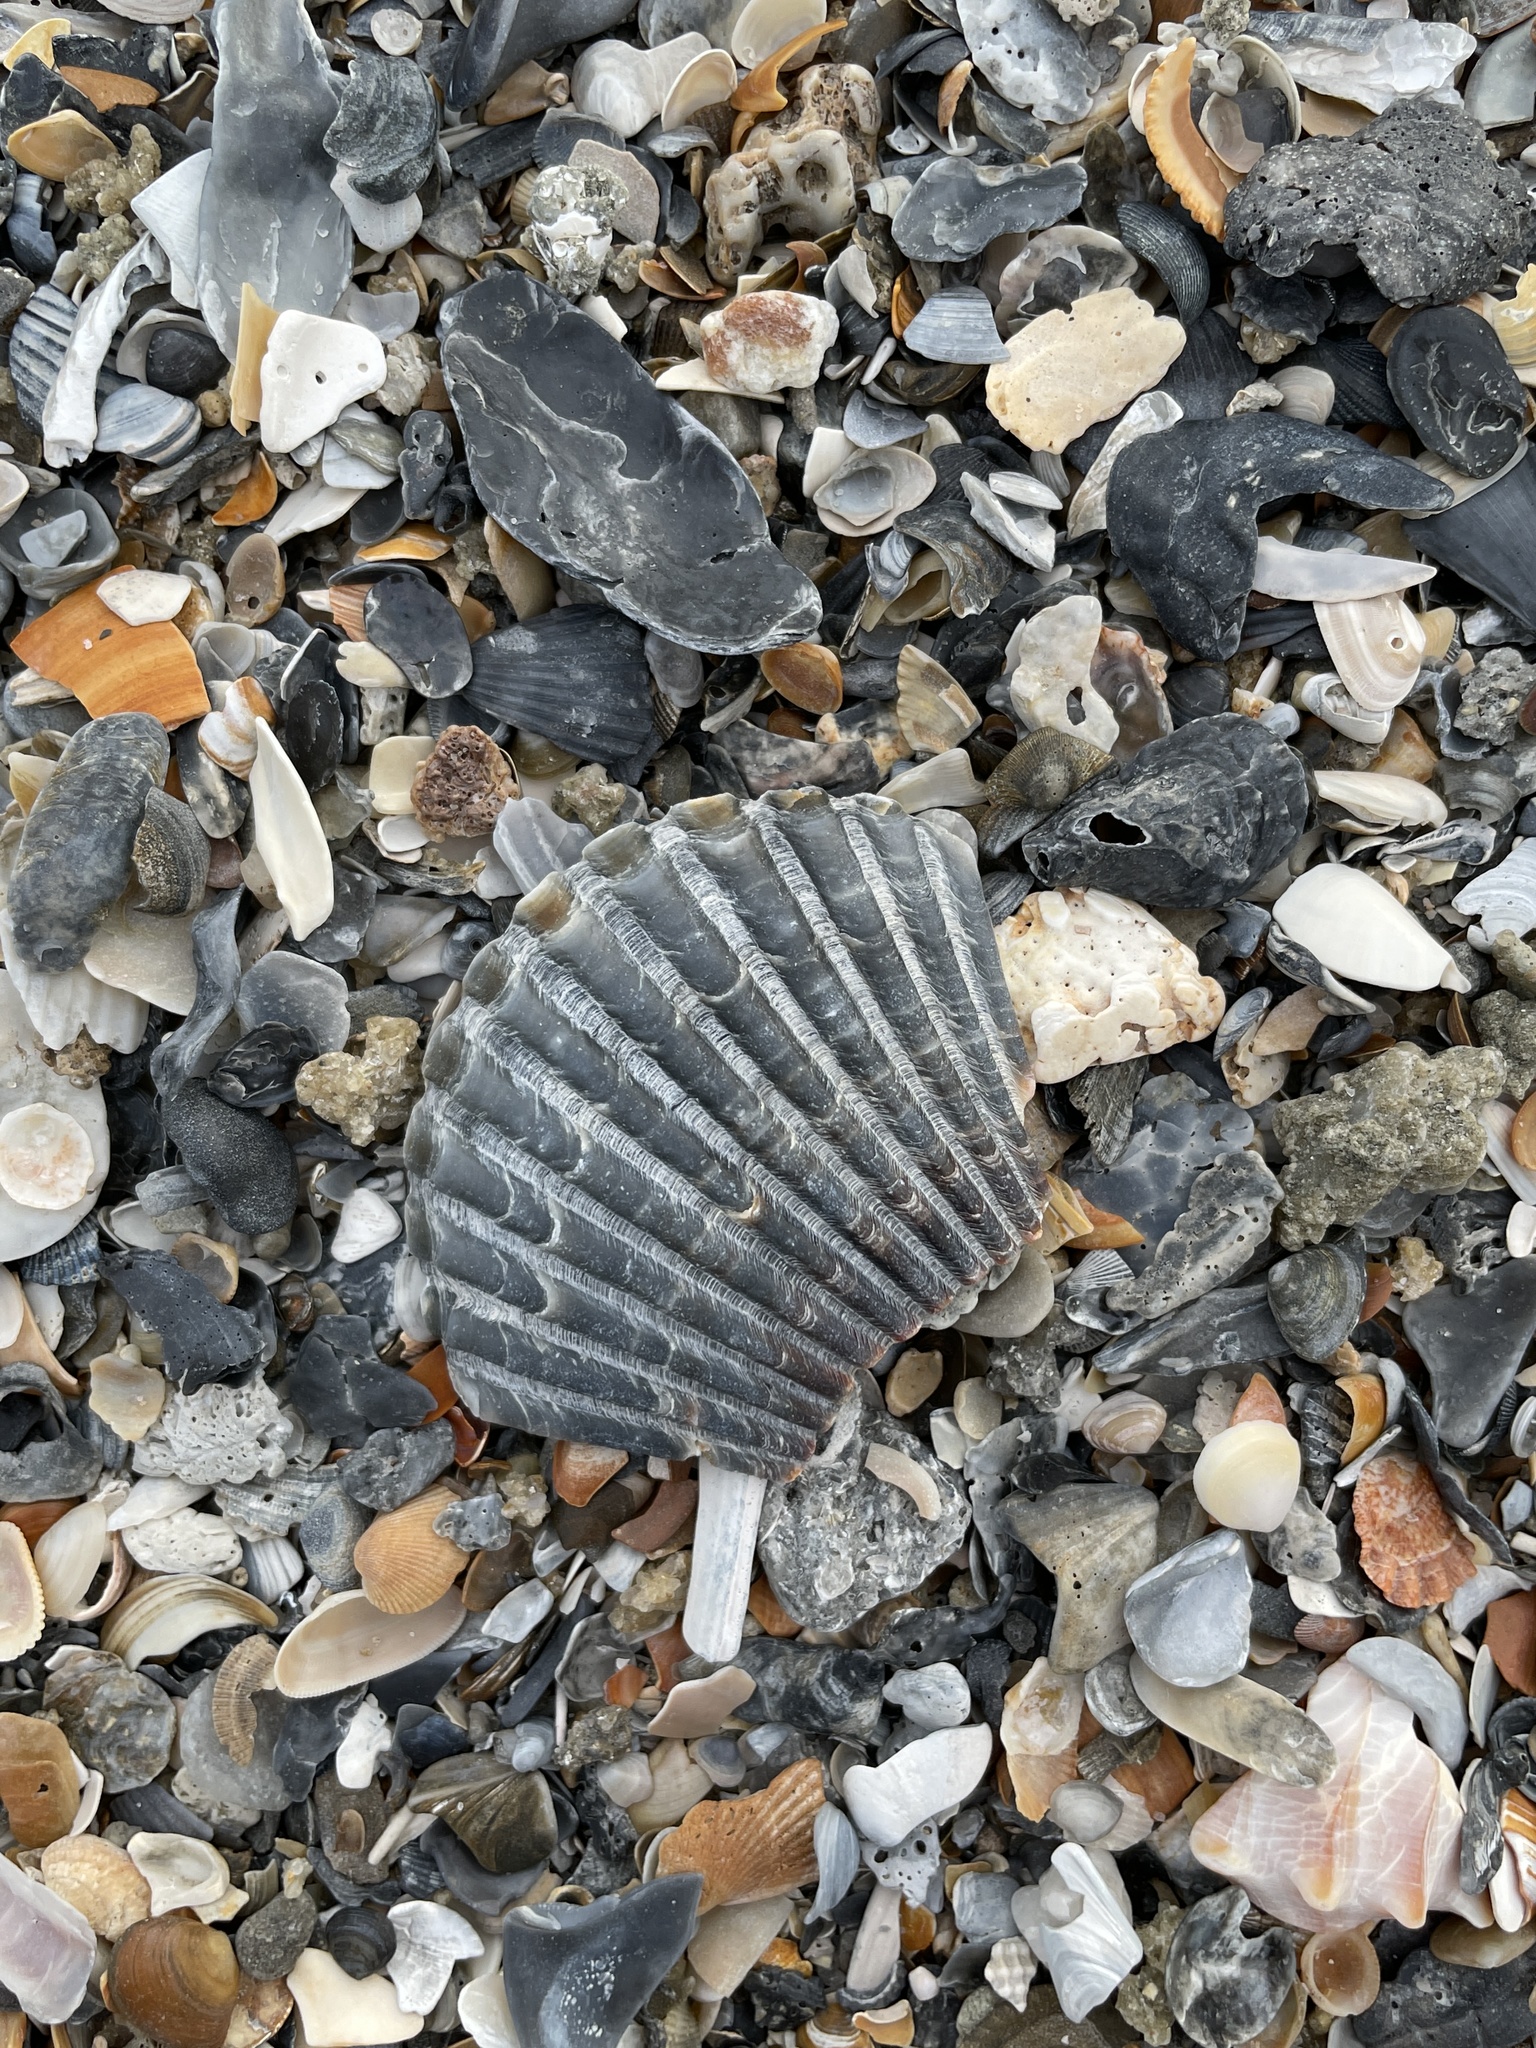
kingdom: Animalia
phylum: Mollusca
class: Bivalvia
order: Pectinida
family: Pectinidae
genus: Argopecten
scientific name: Argopecten
